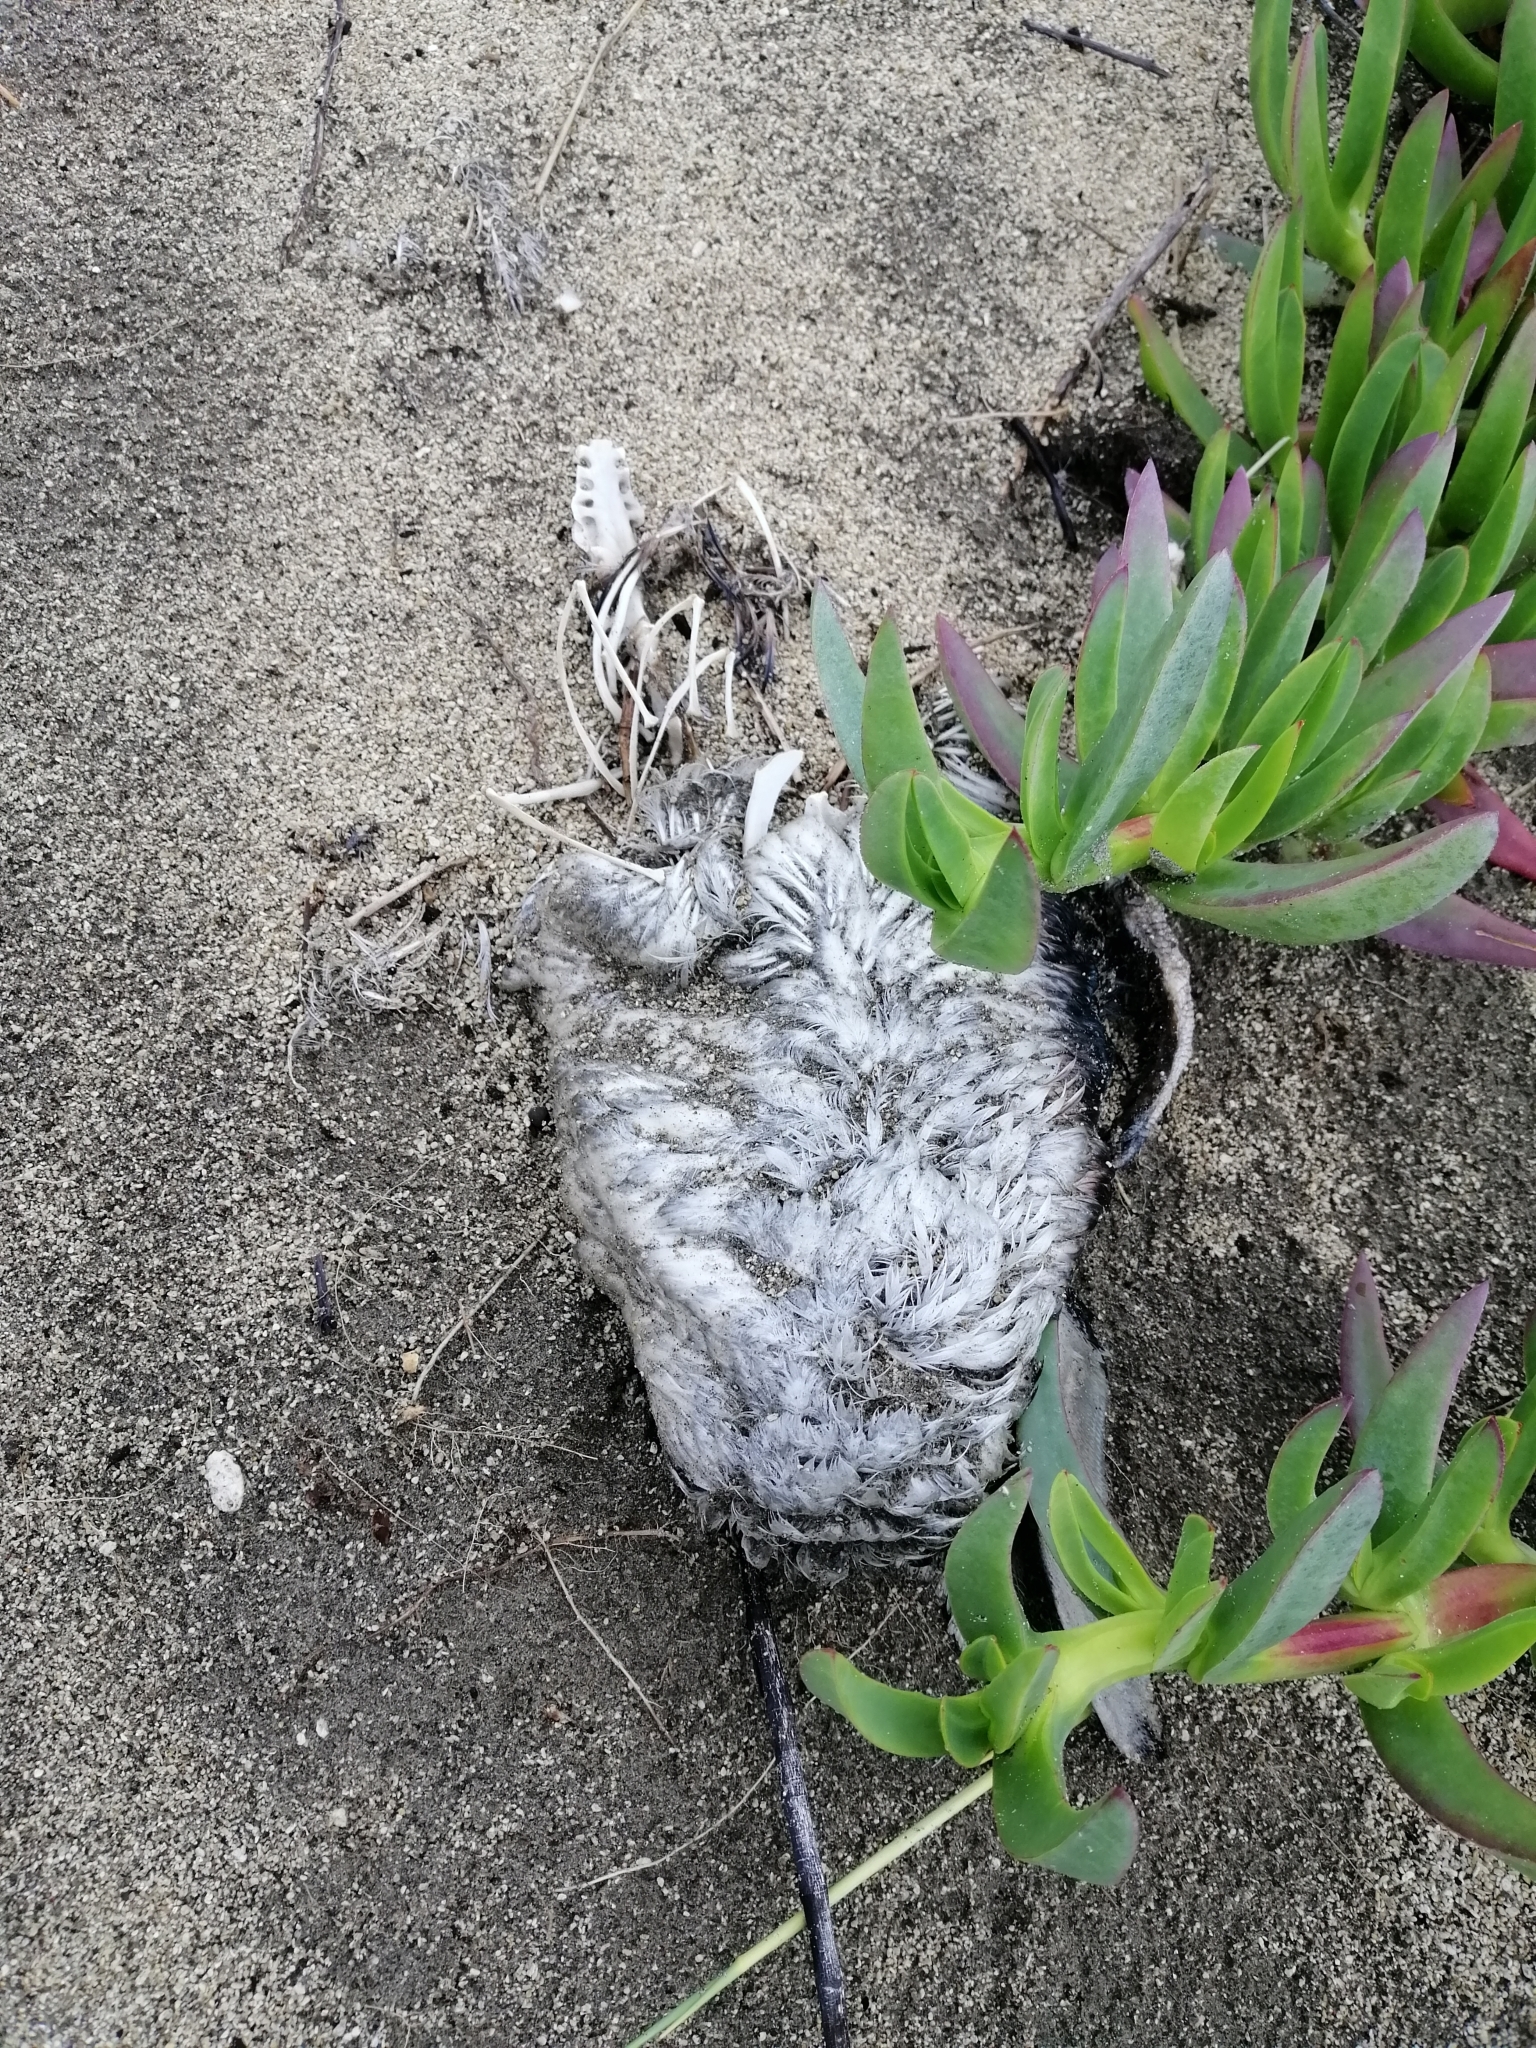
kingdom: Animalia
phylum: Chordata
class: Aves
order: Sphenisciformes
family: Spheniscidae
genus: Eudyptula
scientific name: Eudyptula minor
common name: Little penguin
